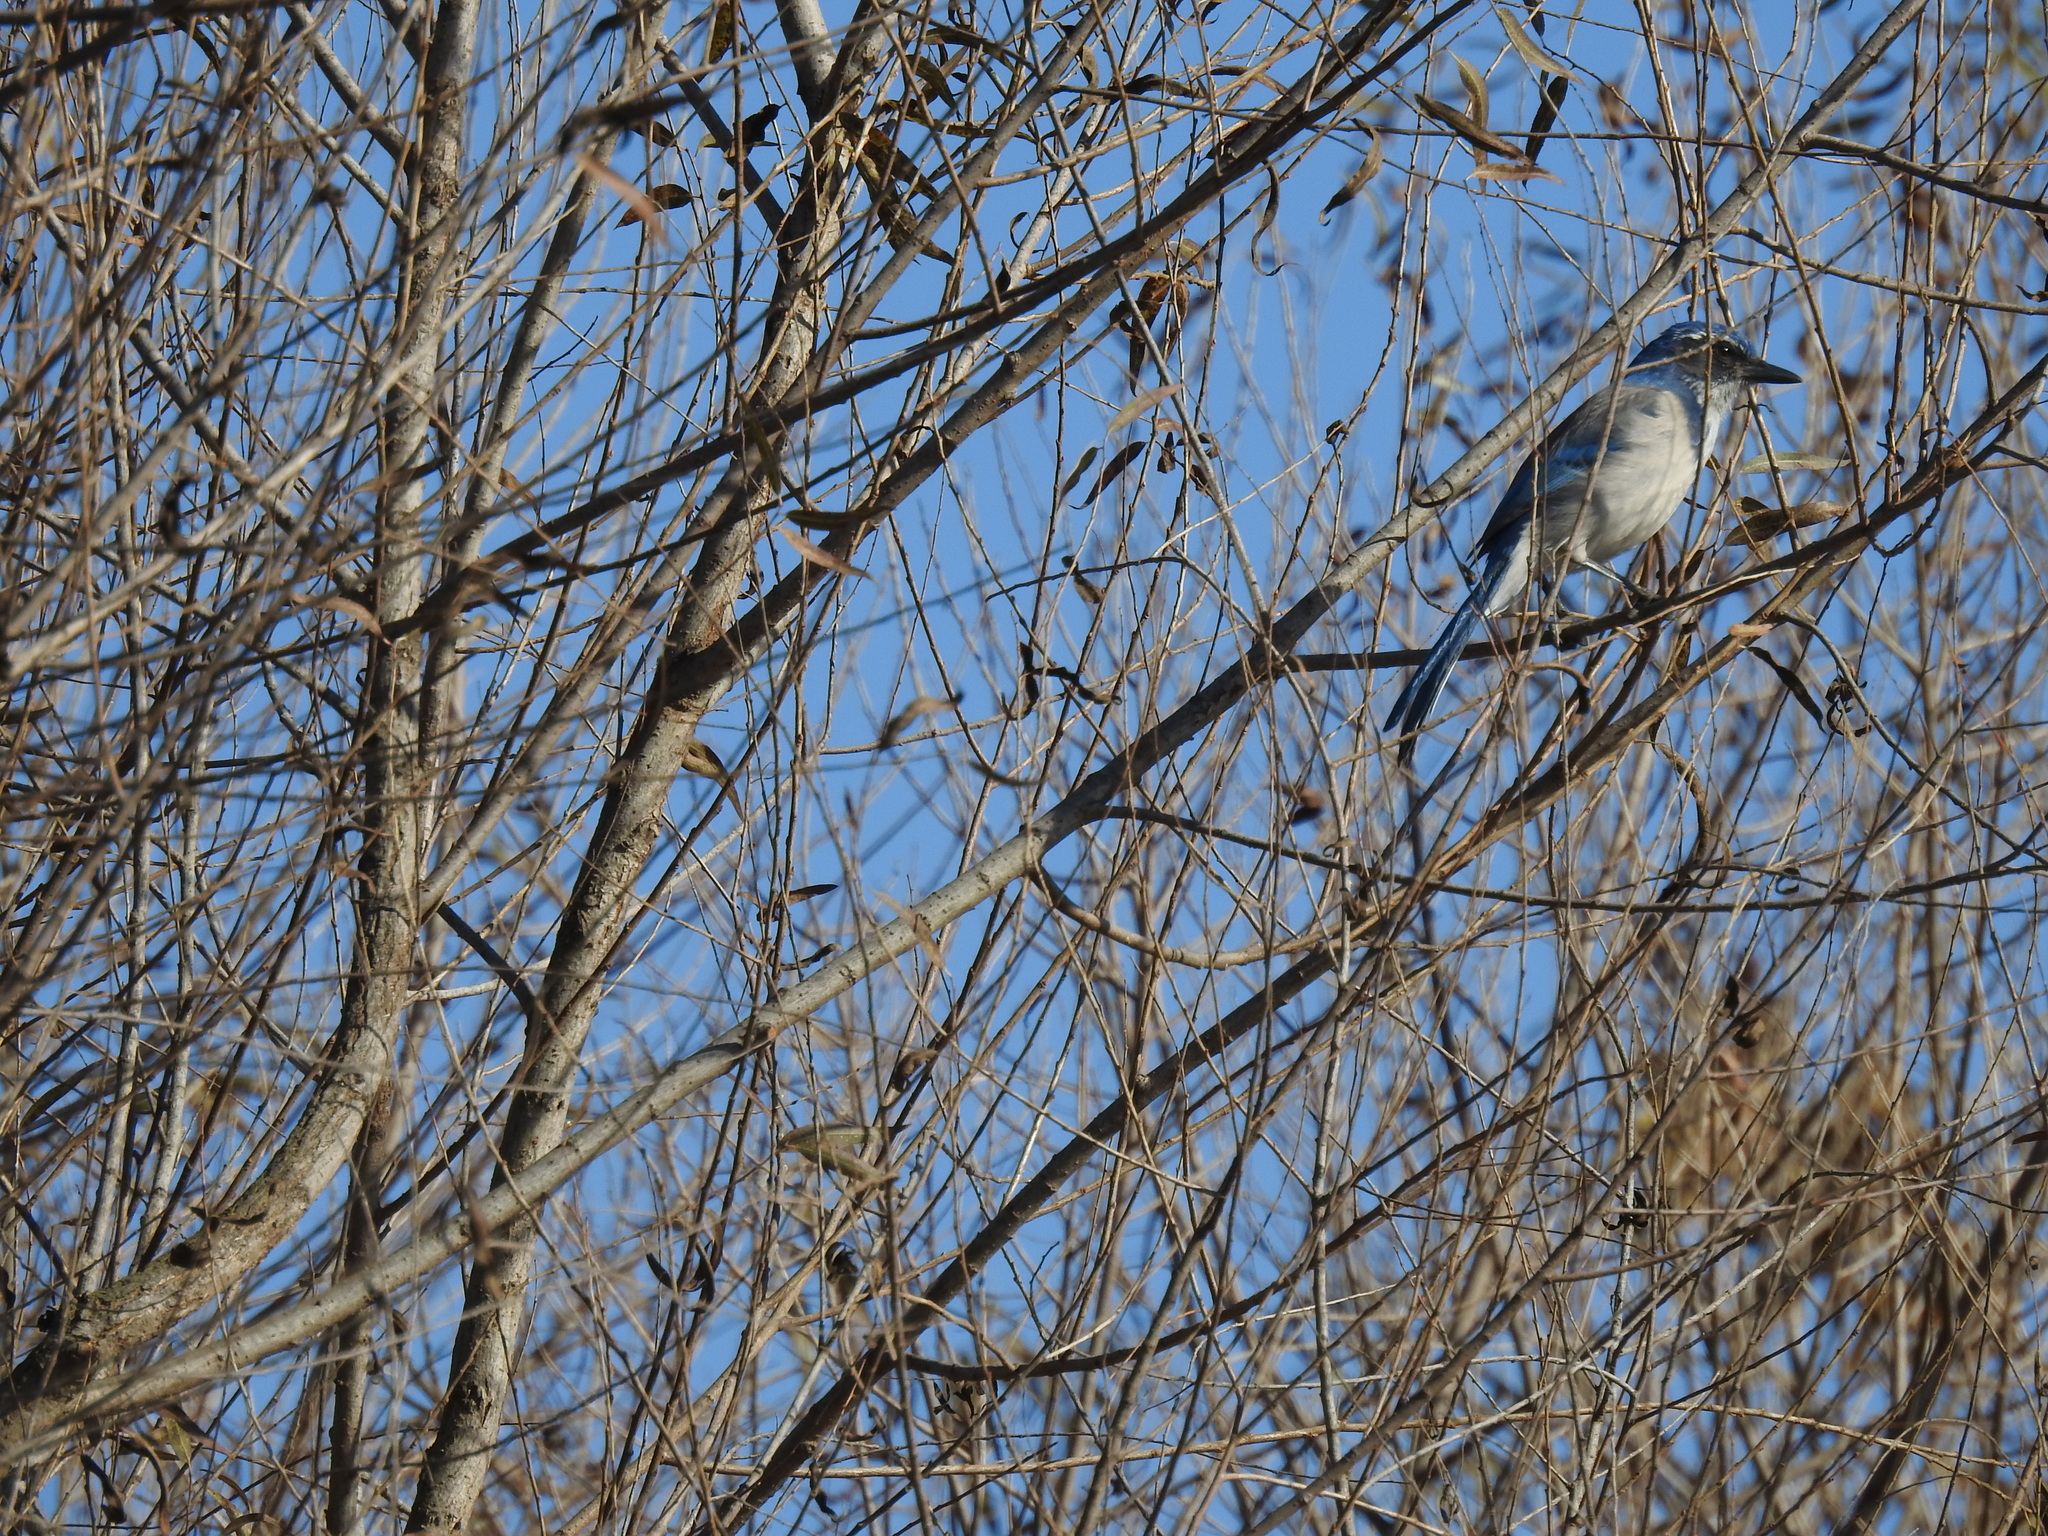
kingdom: Animalia
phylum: Chordata
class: Aves
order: Passeriformes
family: Corvidae
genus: Aphelocoma
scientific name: Aphelocoma californica
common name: California scrub-jay
